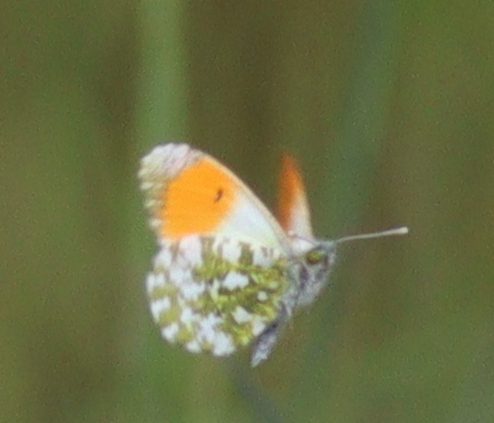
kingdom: Animalia
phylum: Arthropoda
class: Insecta
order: Lepidoptera
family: Pieridae
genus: Anthocharis
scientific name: Anthocharis cardamines
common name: Orange-tip
